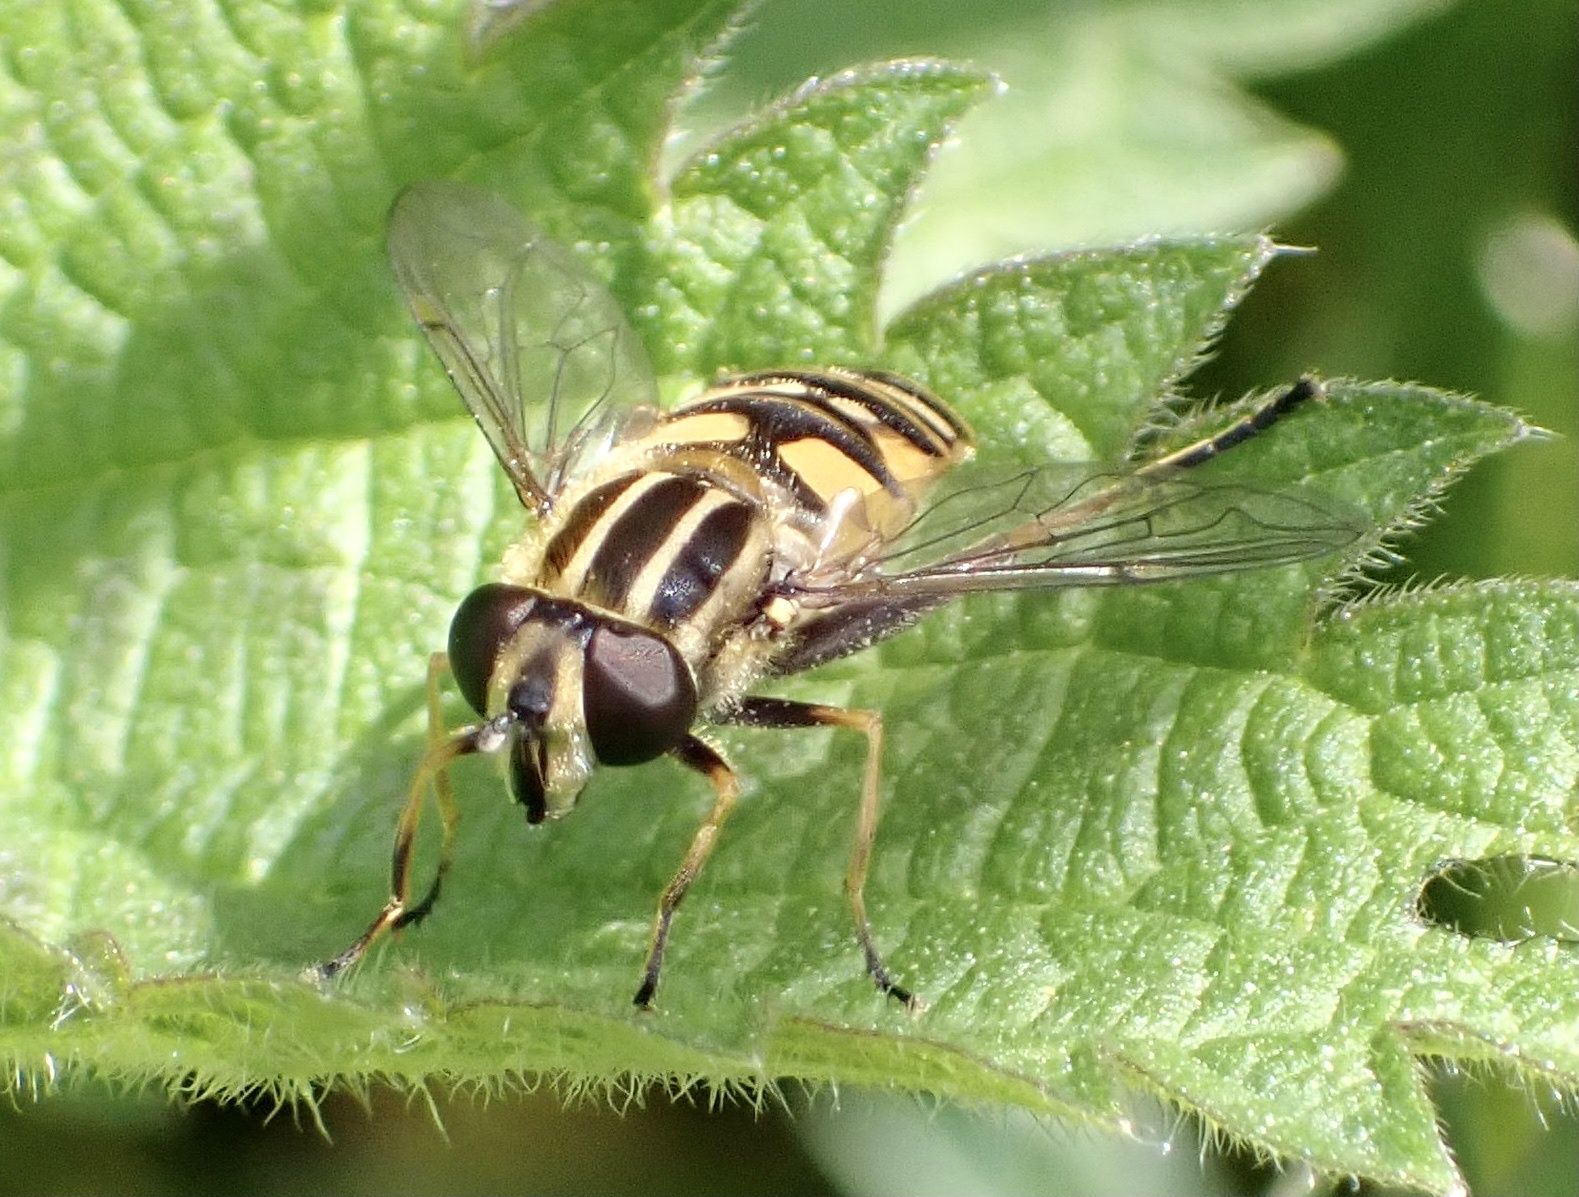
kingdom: Animalia
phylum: Arthropoda
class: Insecta
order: Diptera
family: Syrphidae
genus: Helophilus
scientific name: Helophilus pendulus
